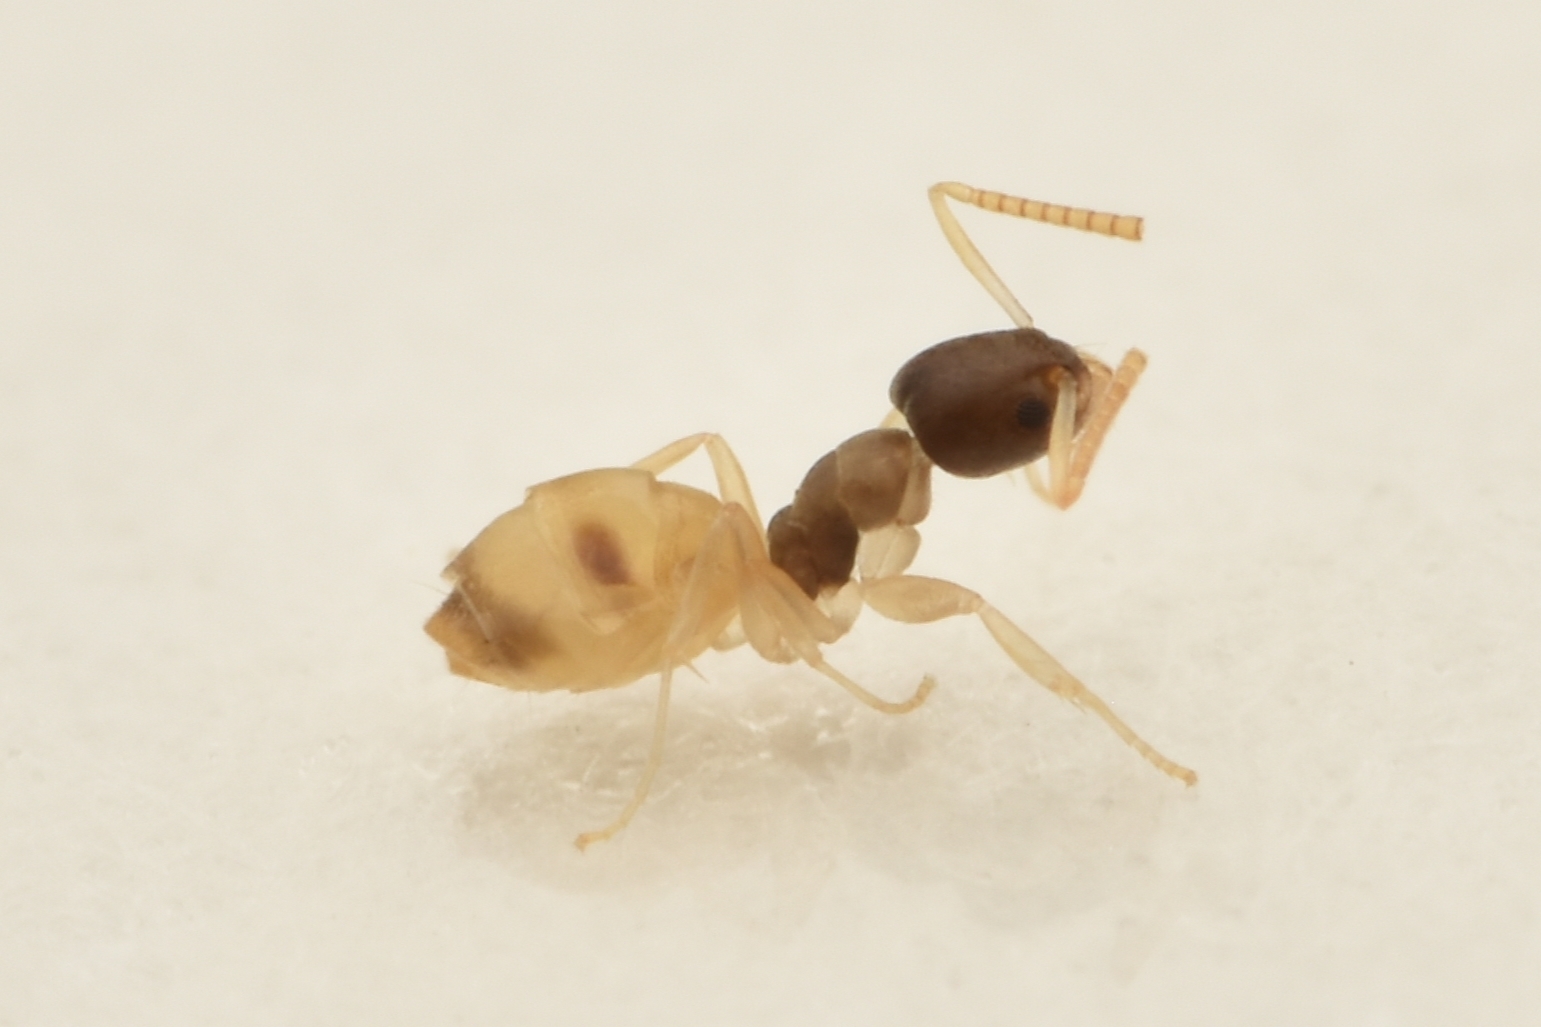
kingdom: Animalia
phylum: Arthropoda
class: Insecta
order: Hymenoptera
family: Formicidae
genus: Tapinoma
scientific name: Tapinoma melanocephalum
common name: Ghost ant
